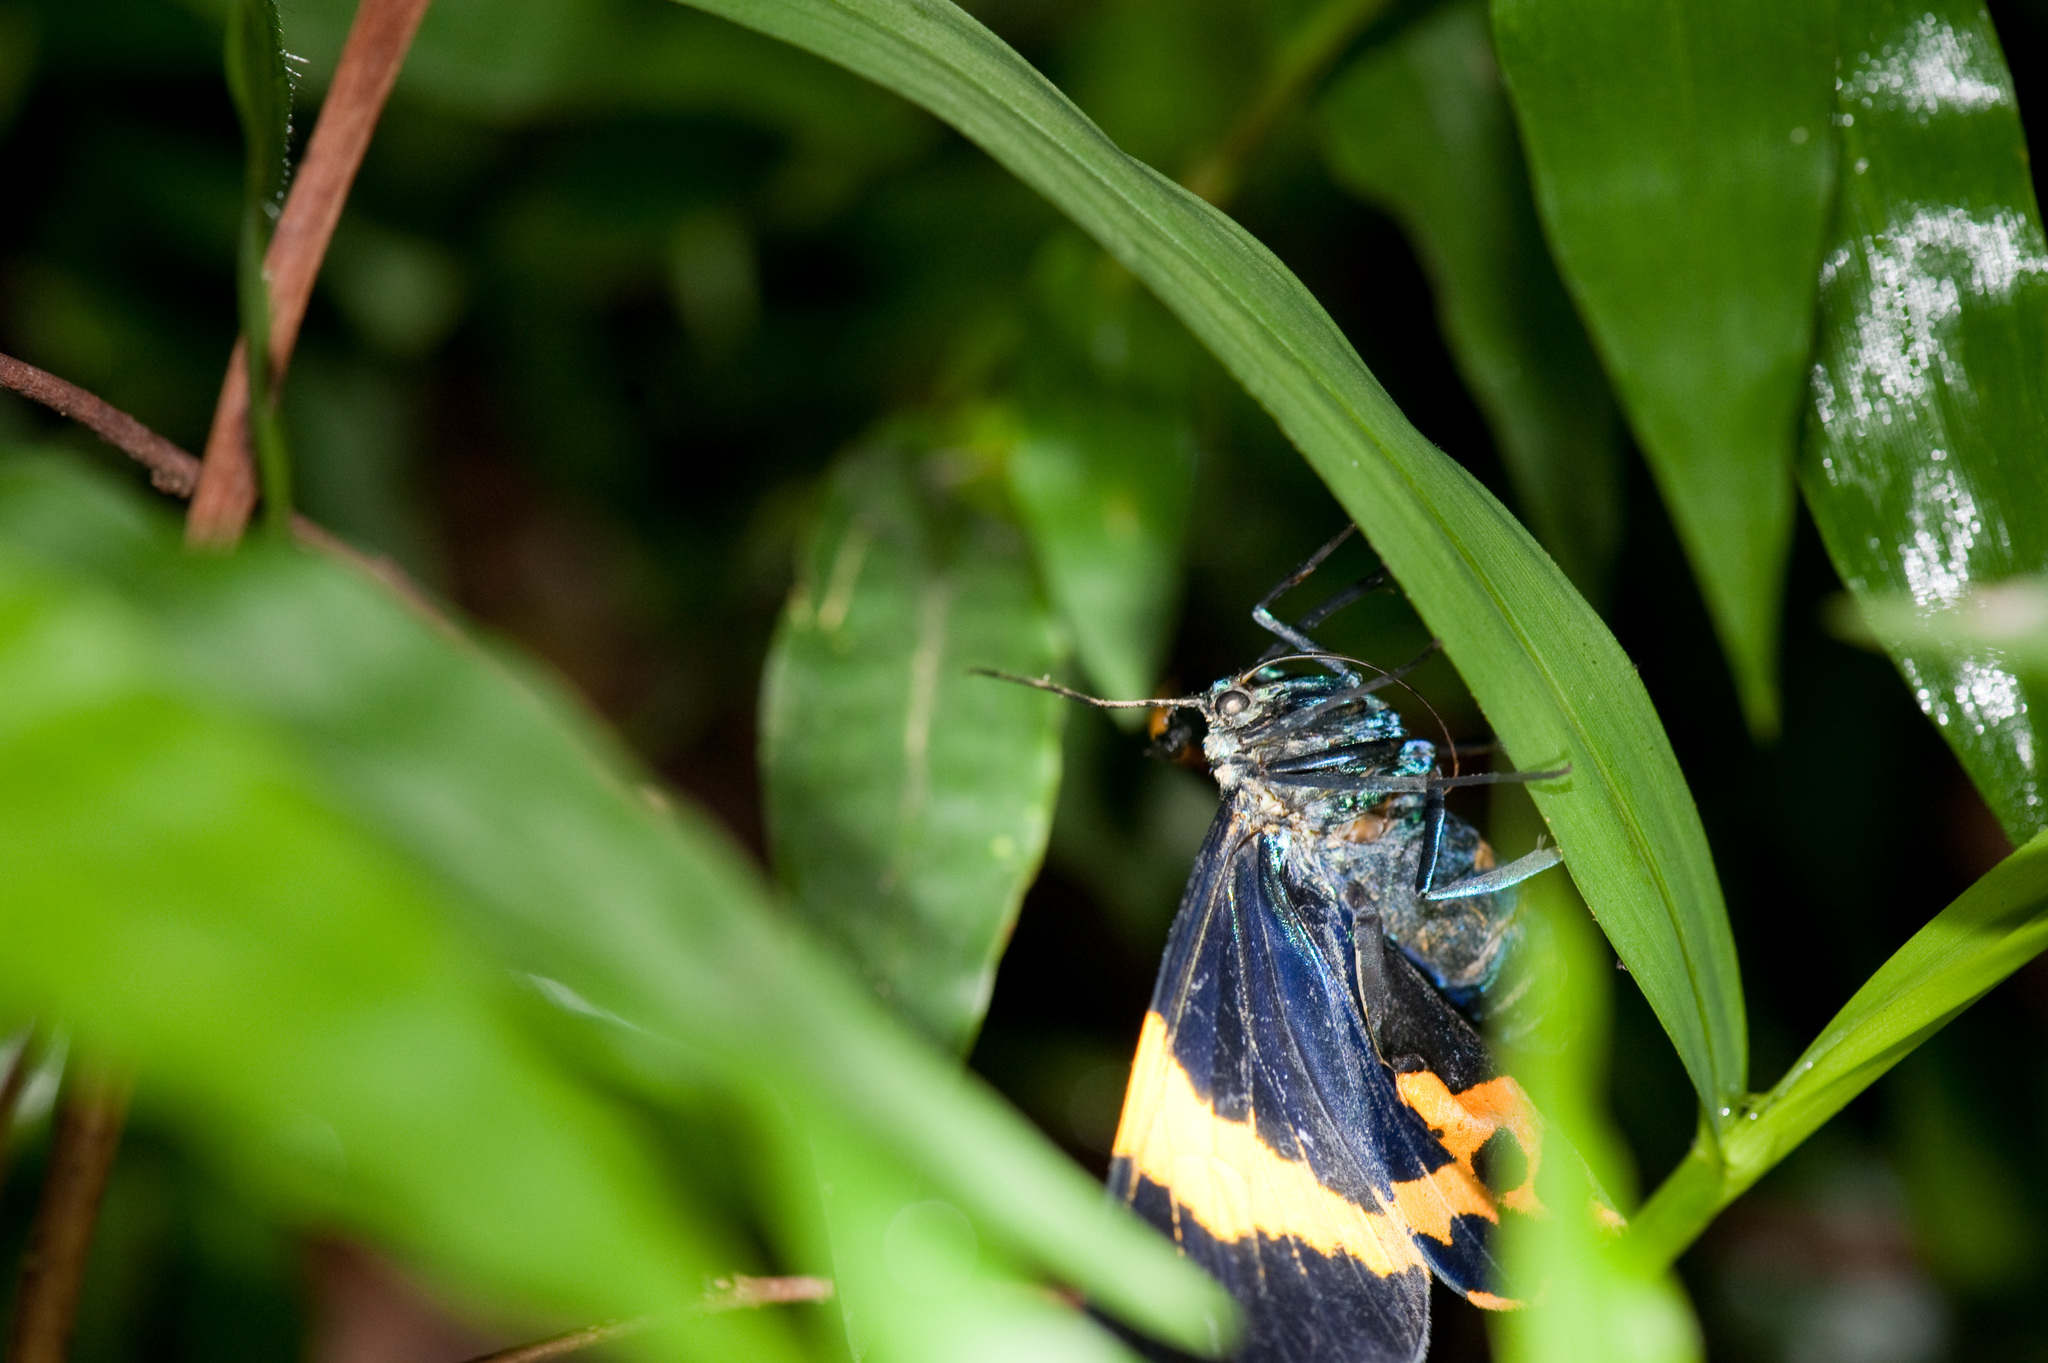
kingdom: Animalia
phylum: Arthropoda
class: Insecta
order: Lepidoptera
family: Geometridae
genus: Milionia
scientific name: Milionia basalis
